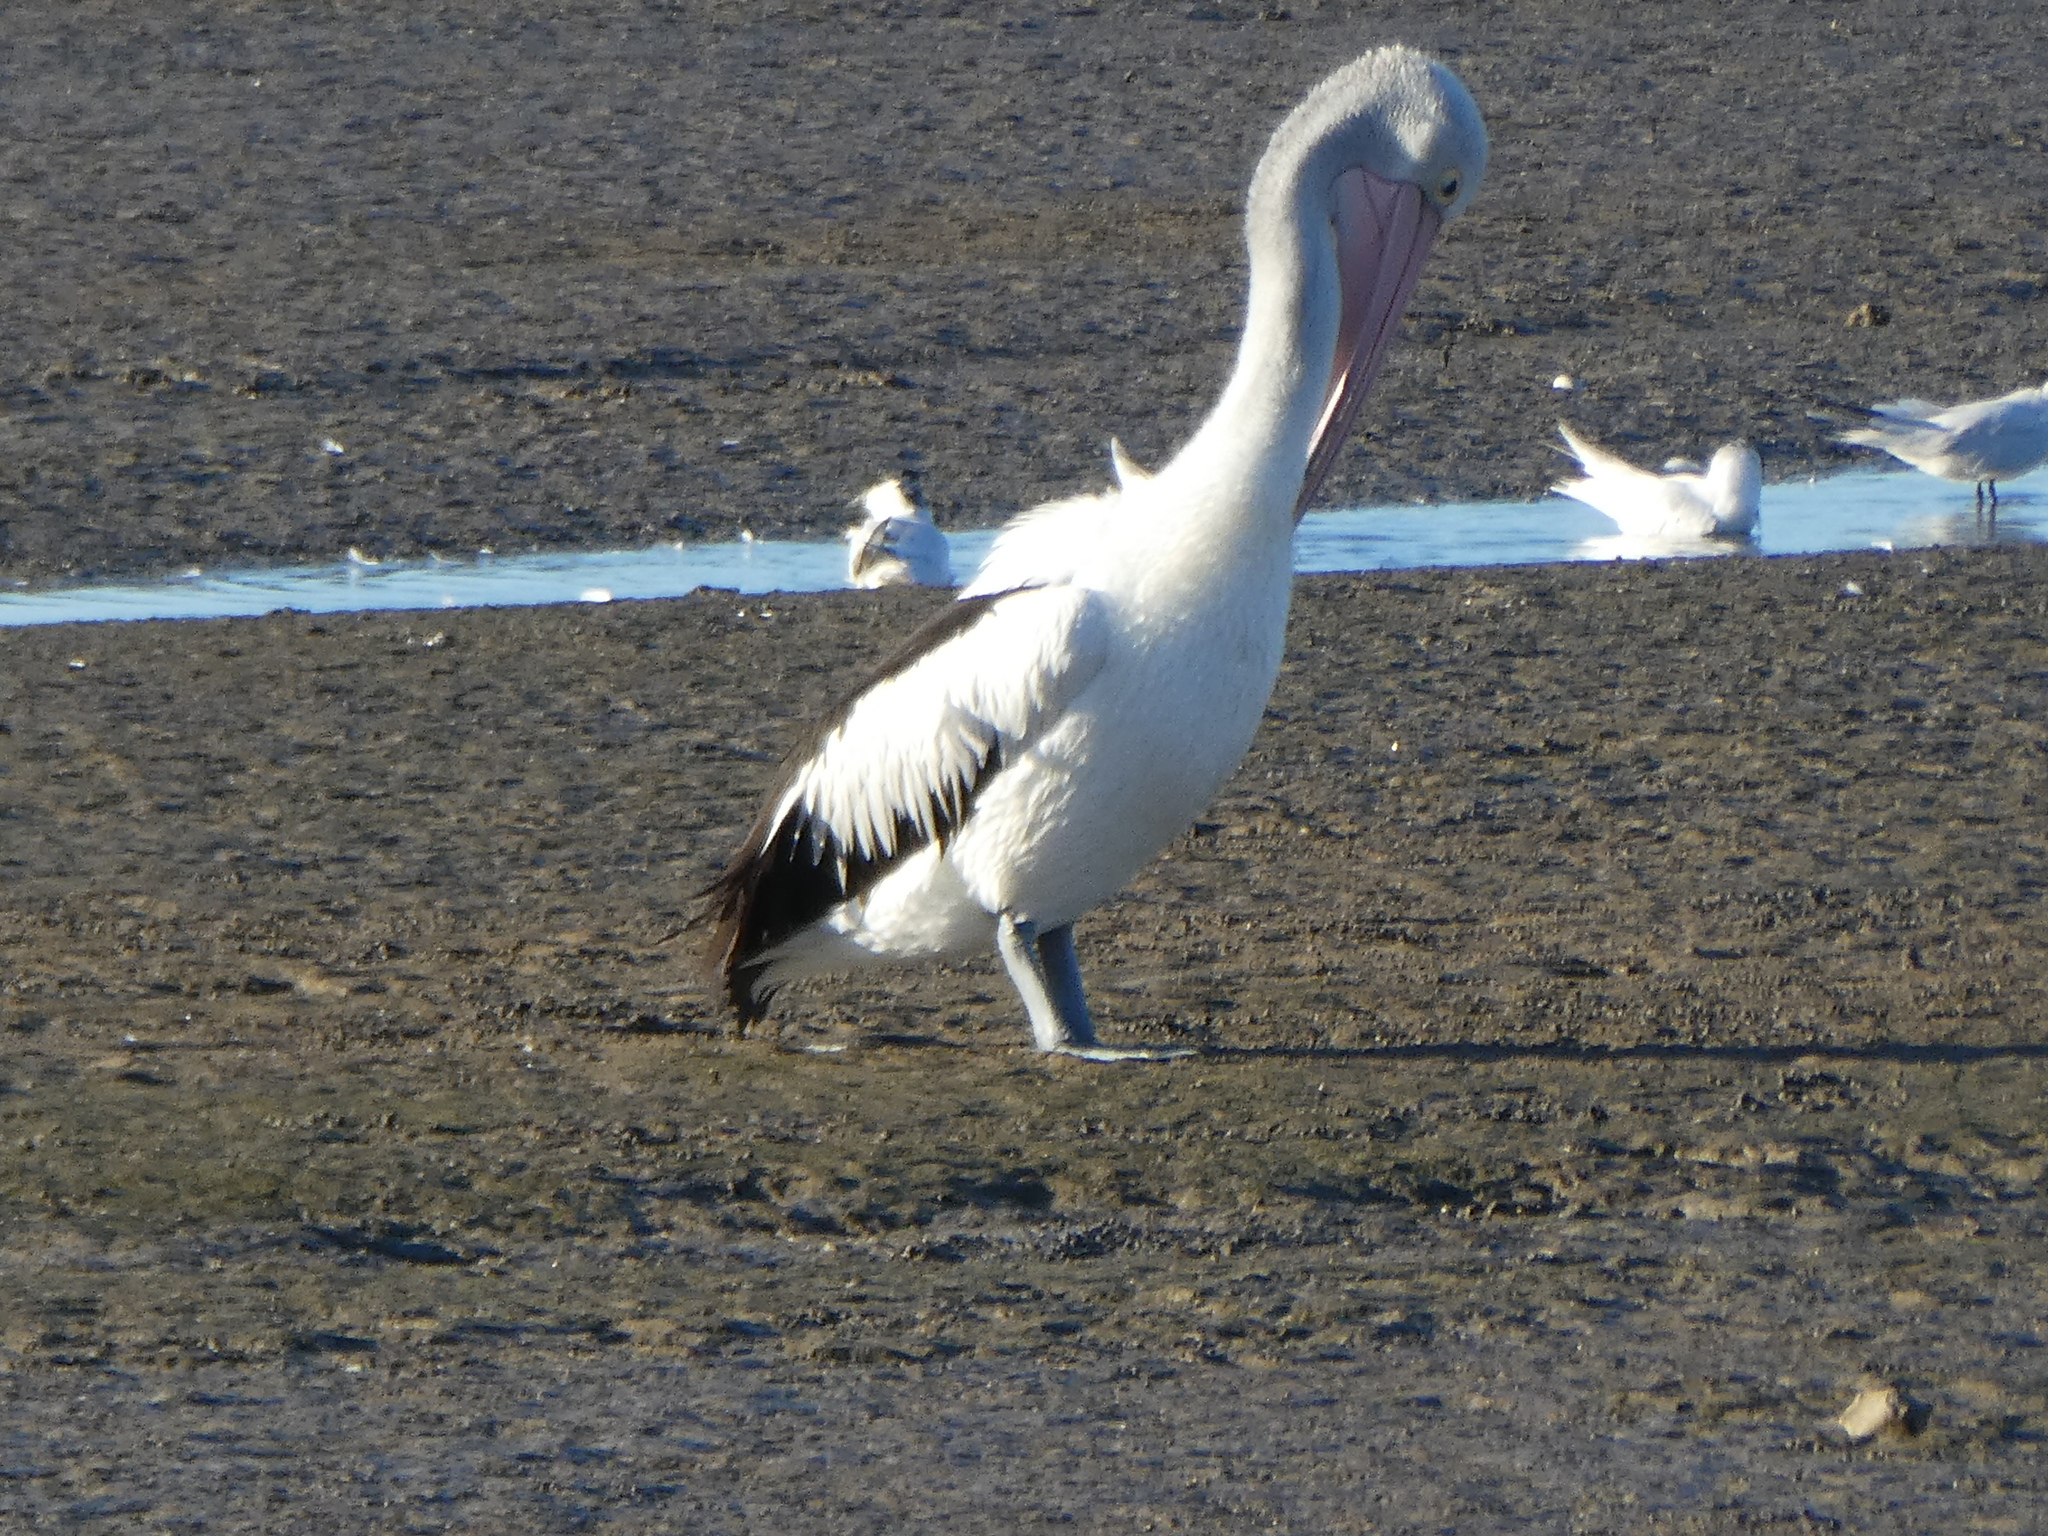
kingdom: Animalia
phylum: Chordata
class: Aves
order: Pelecaniformes
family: Pelecanidae
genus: Pelecanus
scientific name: Pelecanus conspicillatus
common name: Australian pelican
